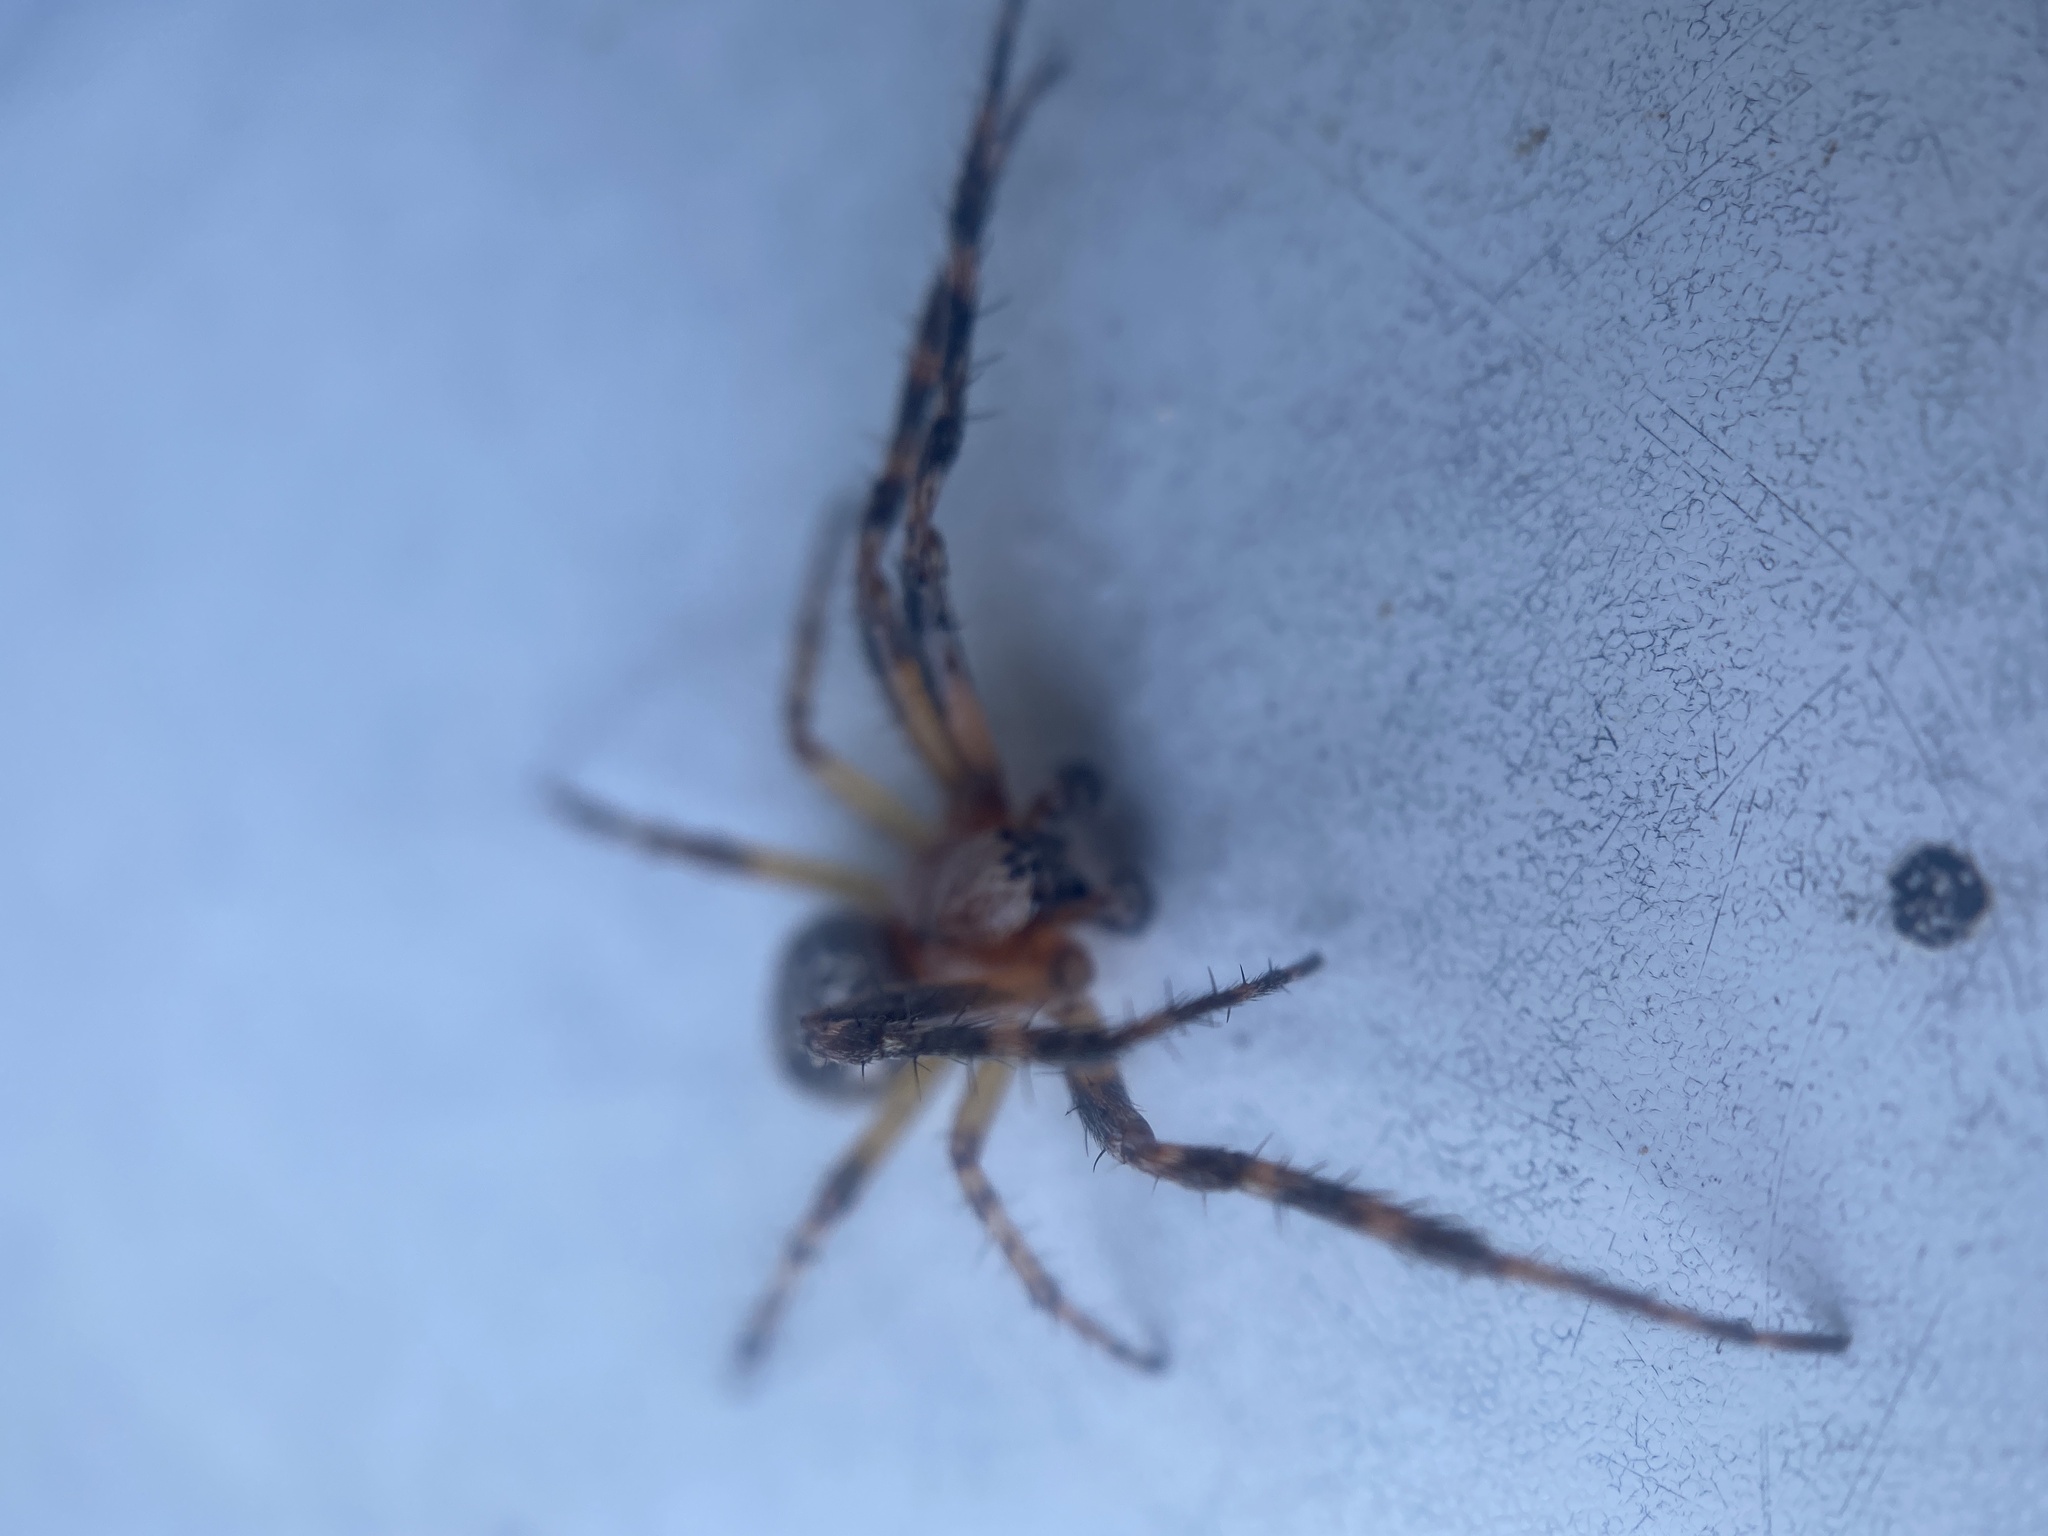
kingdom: Animalia
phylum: Arthropoda
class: Arachnida
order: Araneae
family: Araneidae
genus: Larinioides
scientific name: Larinioides patagiatus
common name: Ornamental orbweaver
